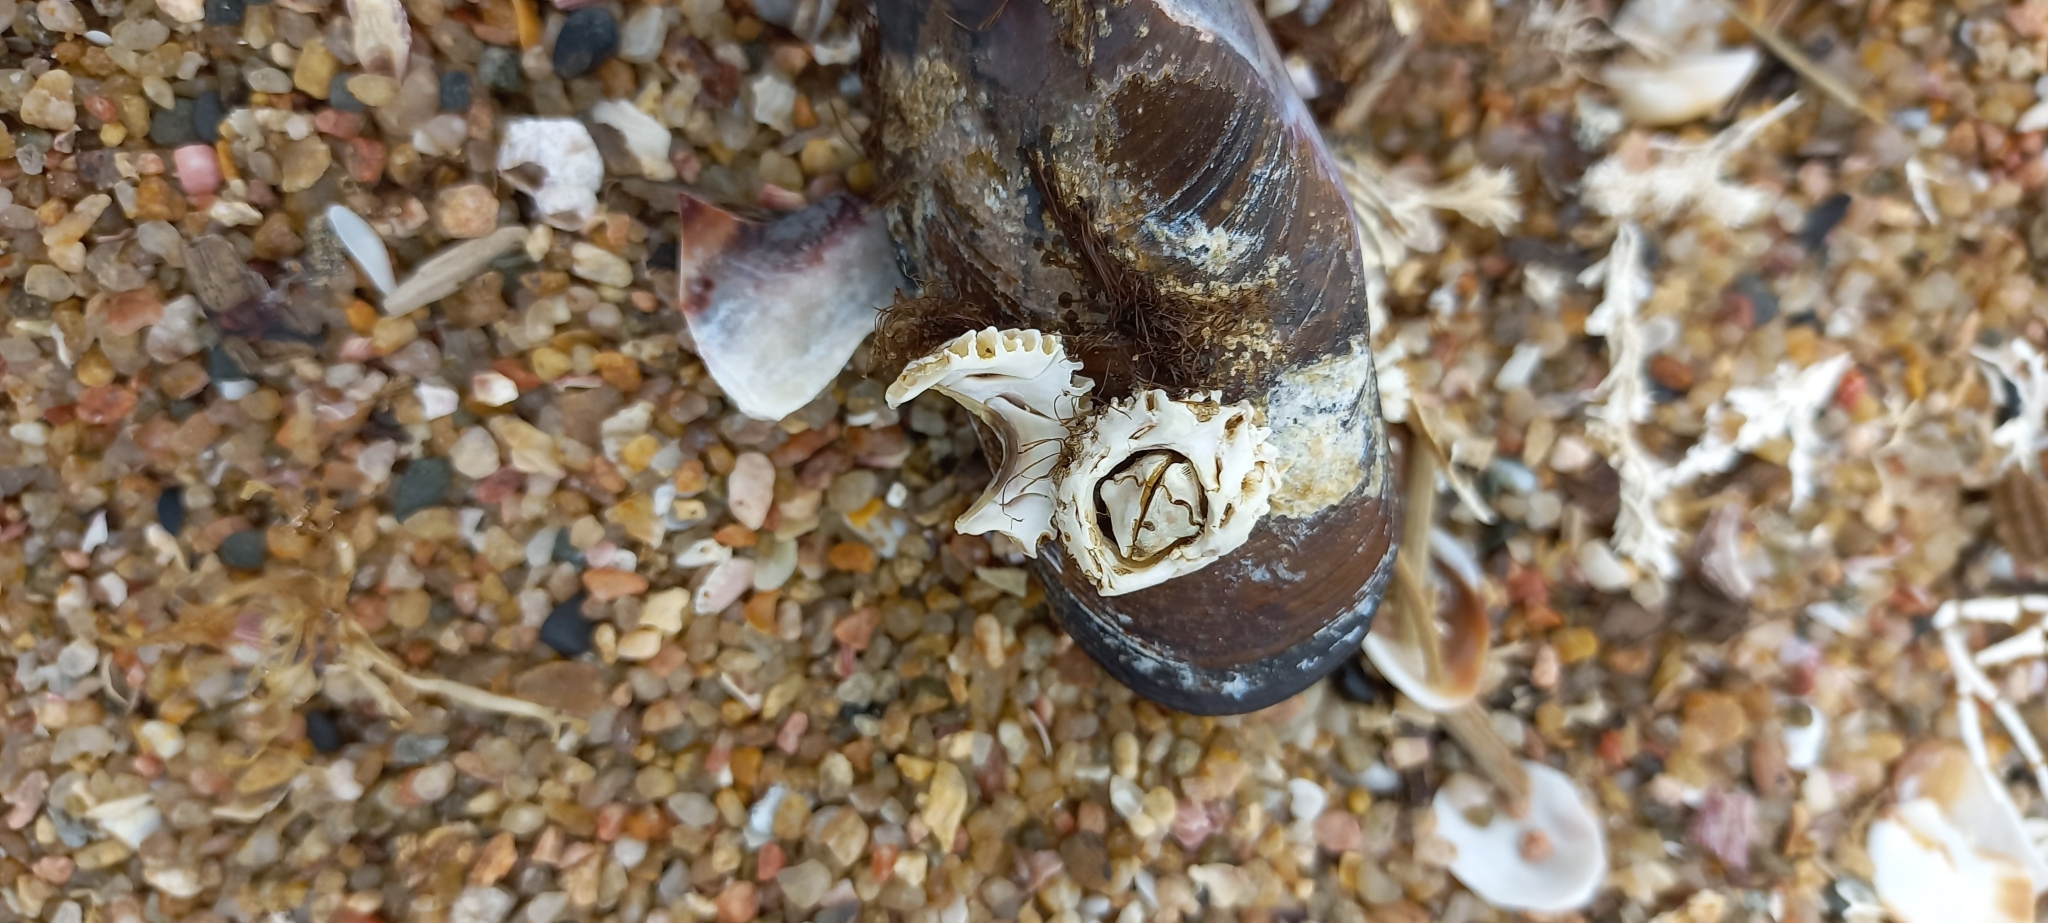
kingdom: Animalia
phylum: Arthropoda
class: Maxillopoda
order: Sessilia
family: Chthamalidae
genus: Chthamalus
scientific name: Chthamalus dentatus
